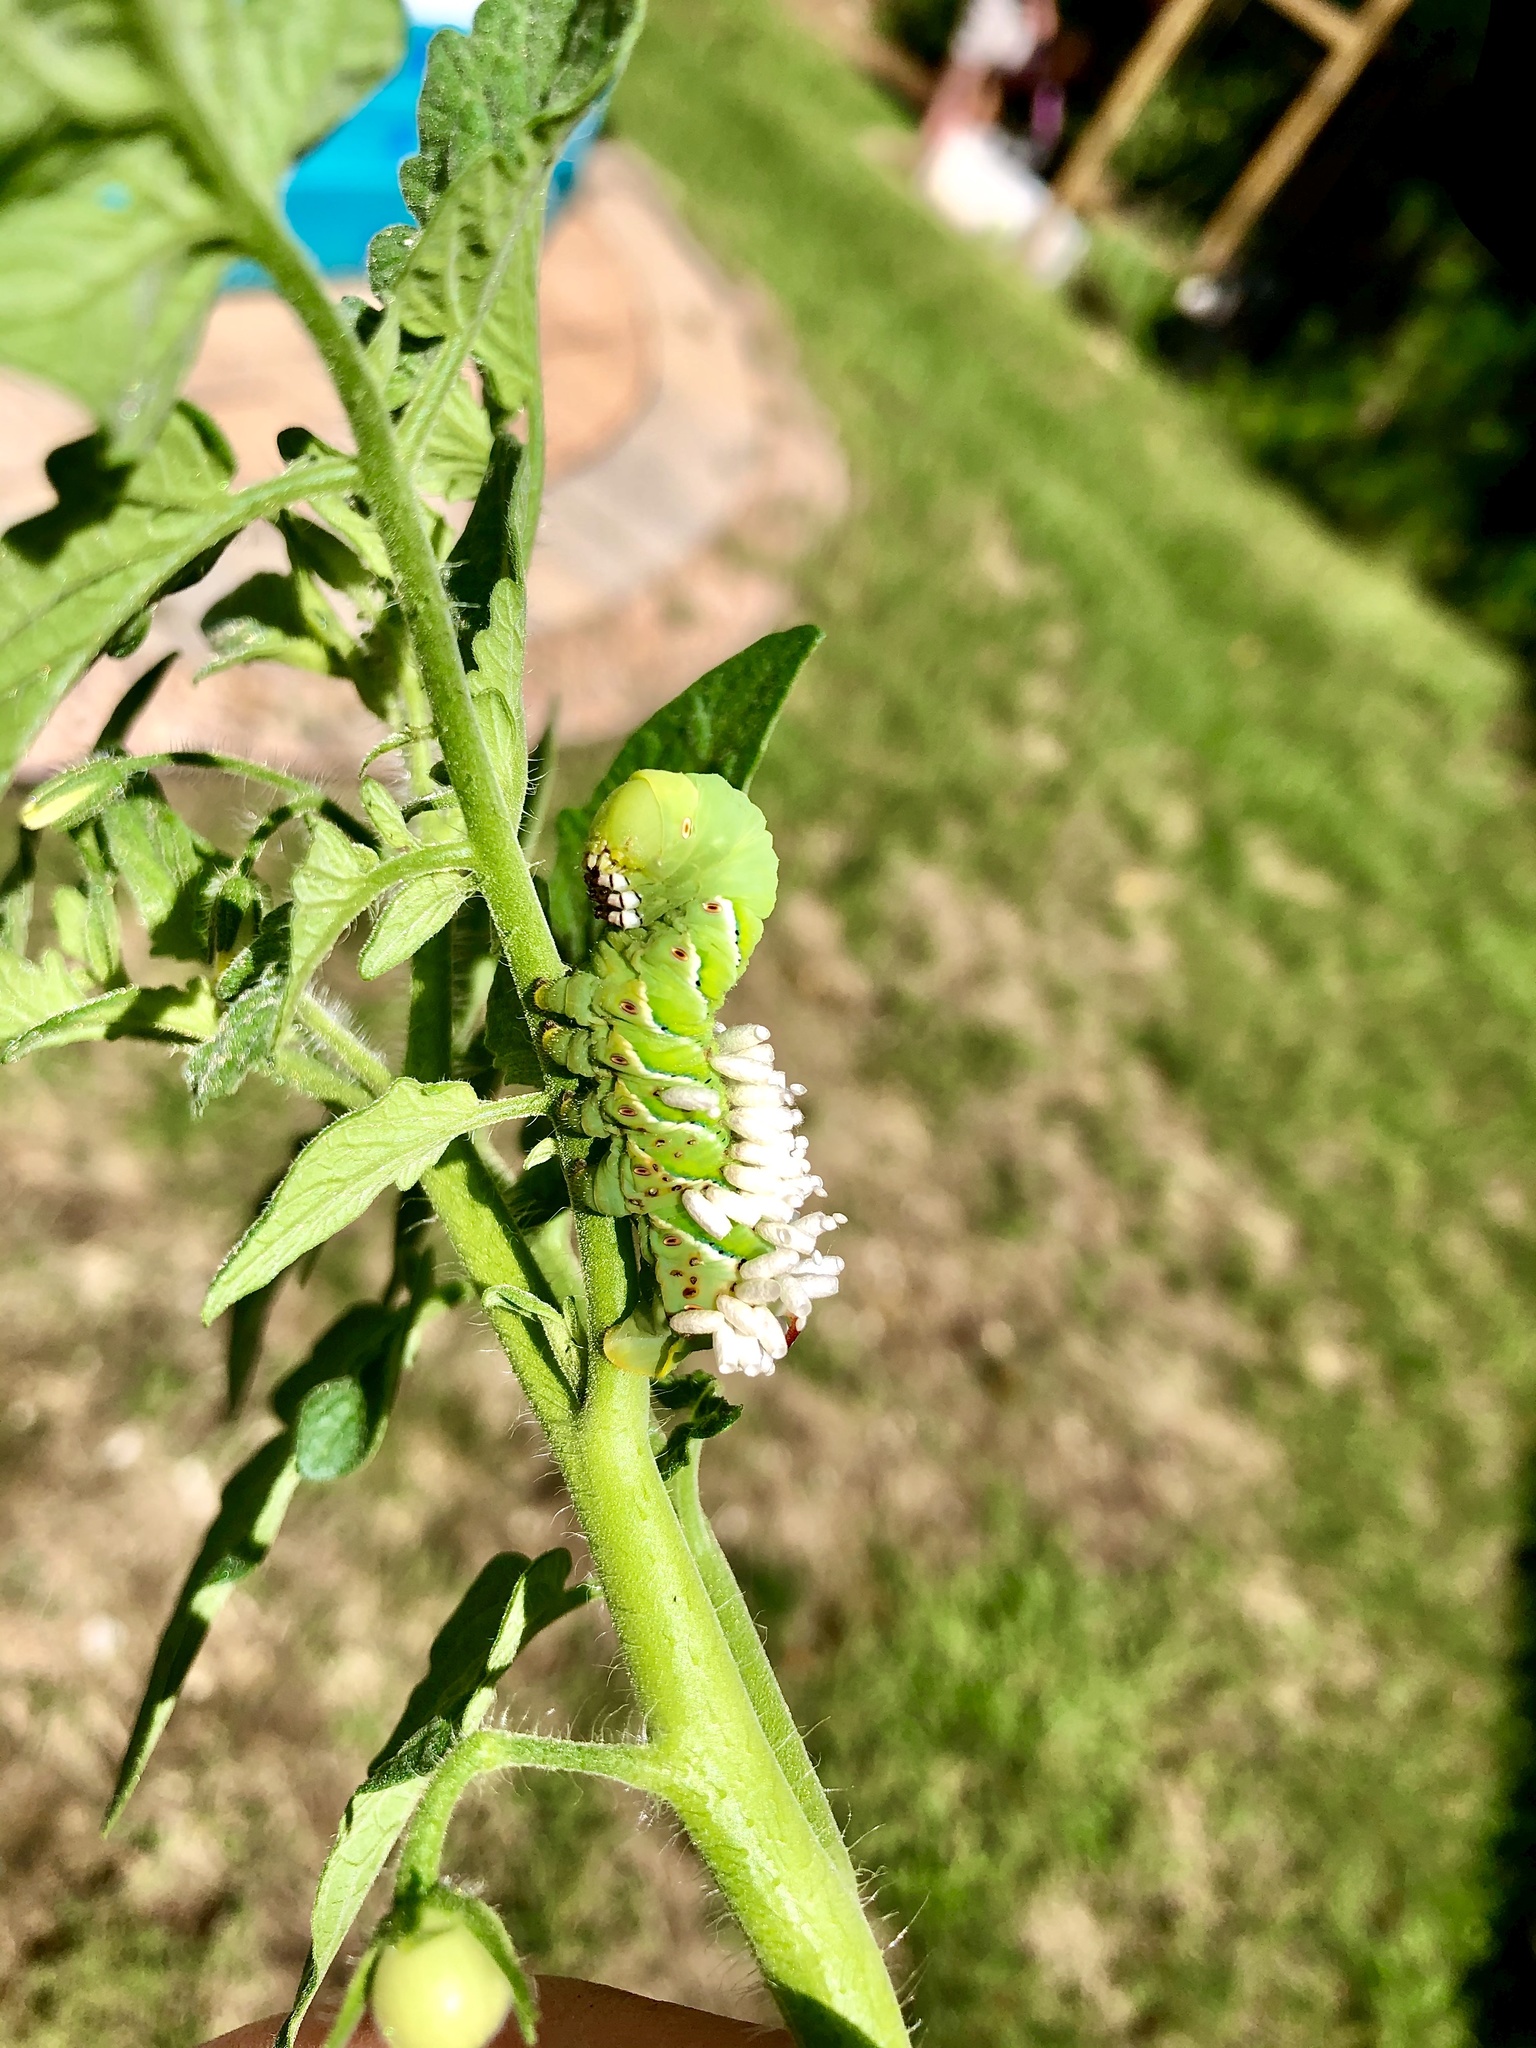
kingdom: Animalia
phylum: Arthropoda
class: Insecta
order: Hymenoptera
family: Braconidae
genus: Cotesia
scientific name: Cotesia congregata
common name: Hornworm parasitoid wasp
